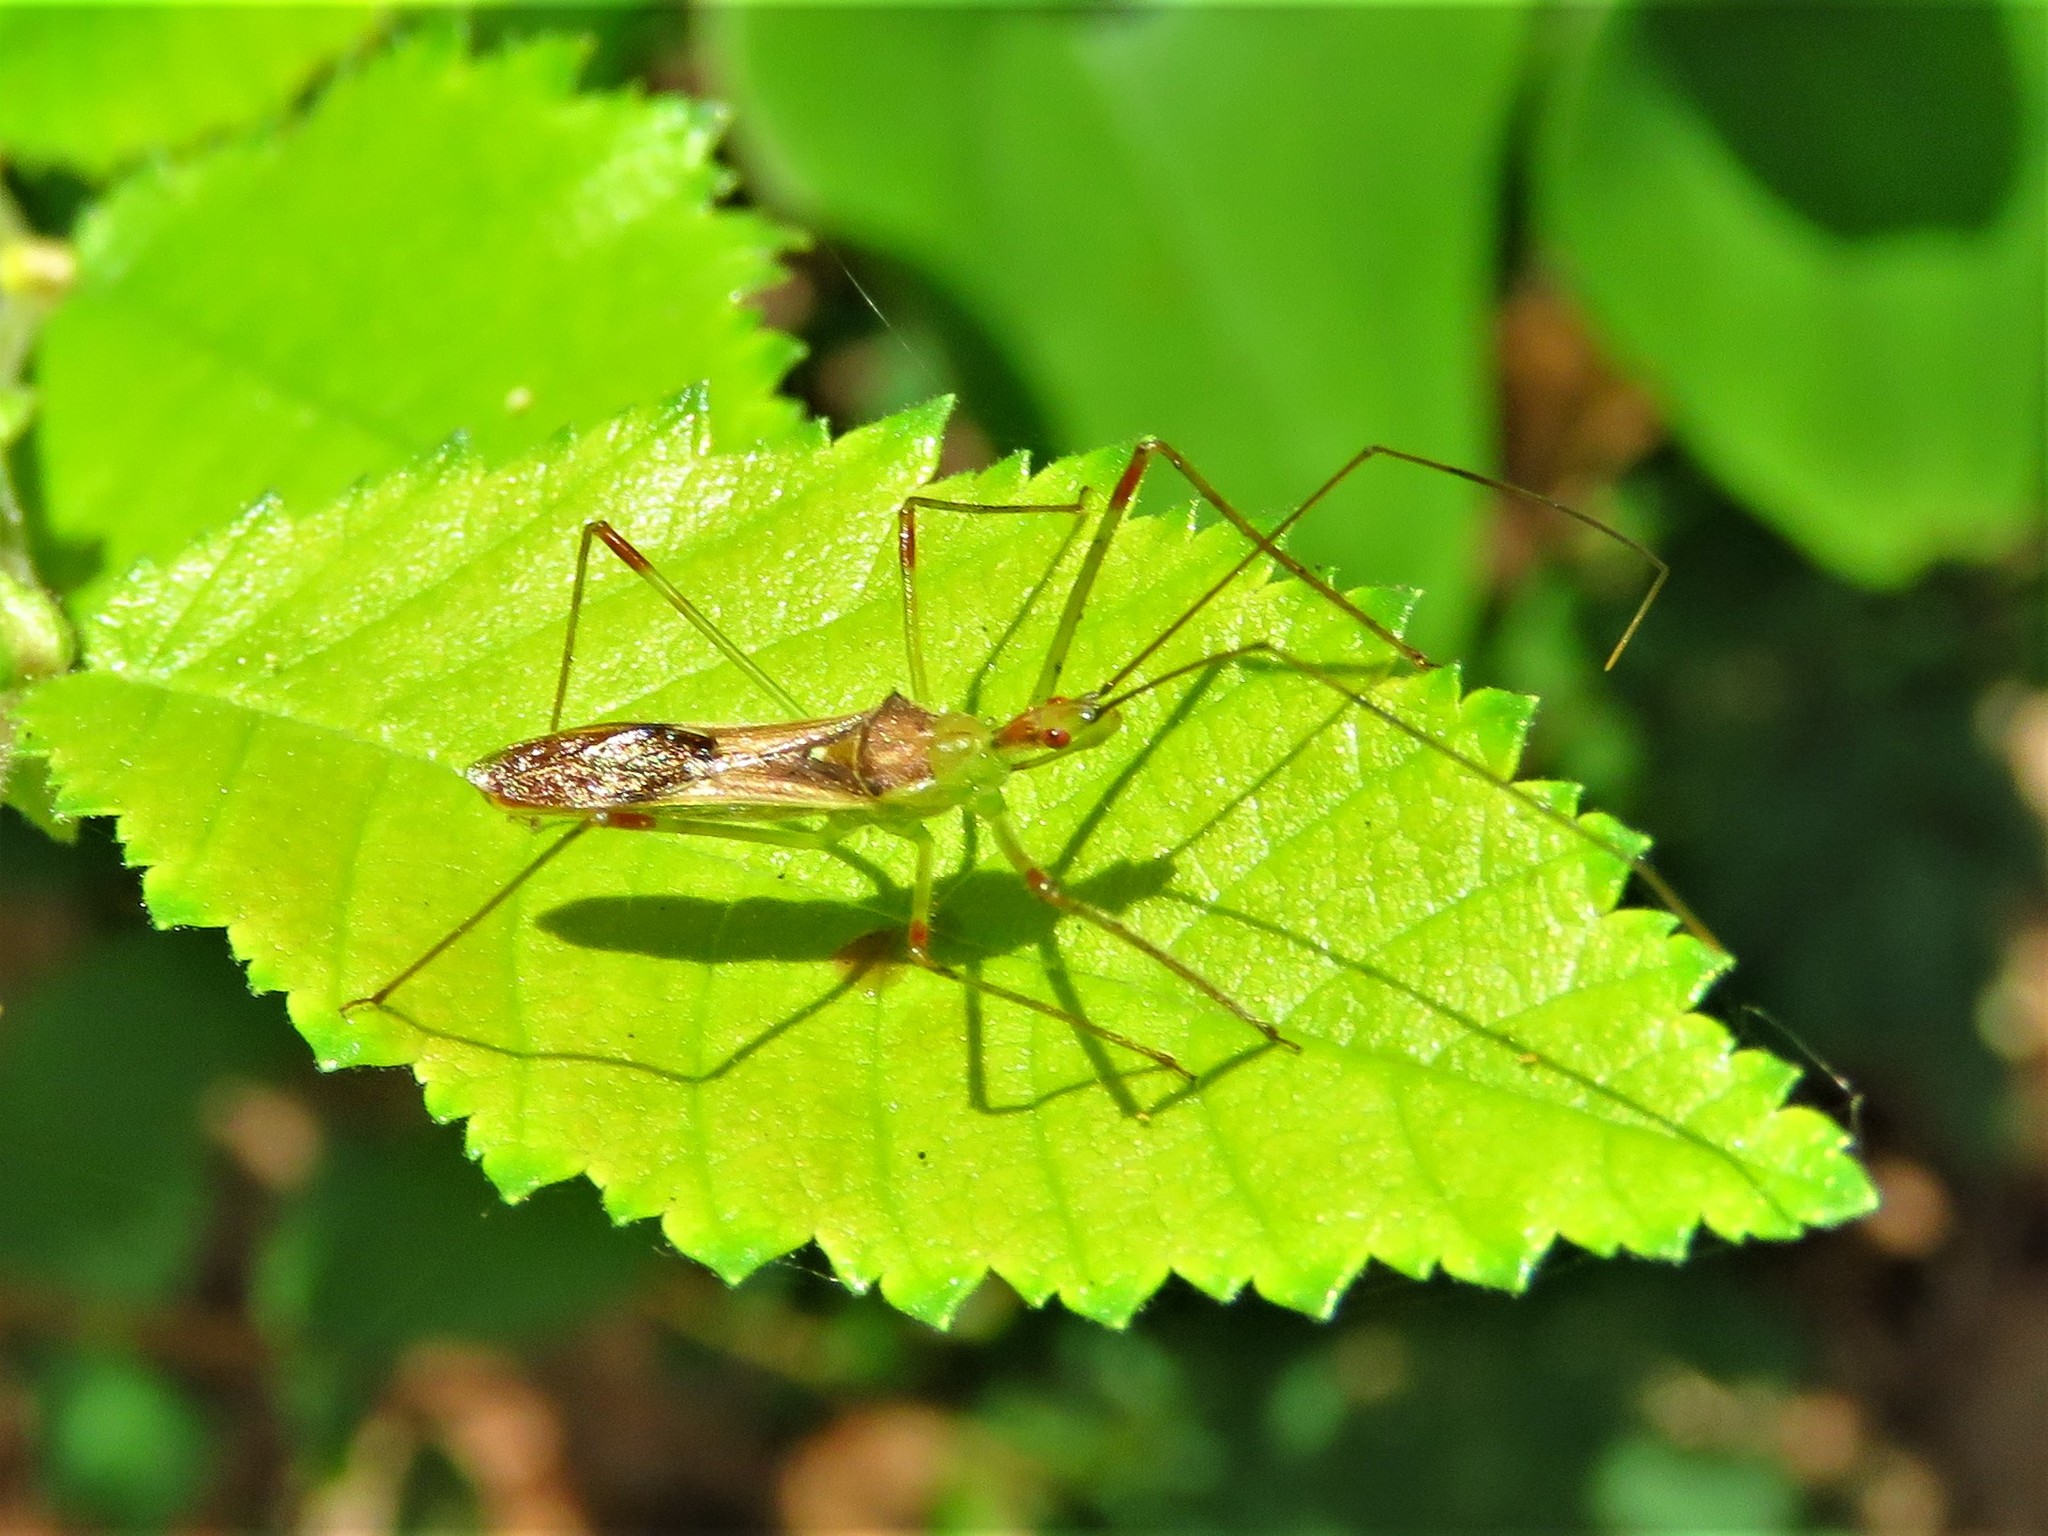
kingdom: Animalia
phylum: Arthropoda
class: Insecta
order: Hemiptera
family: Reduviidae
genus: Zelus
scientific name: Zelus luridus
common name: Pale green assassin bug
